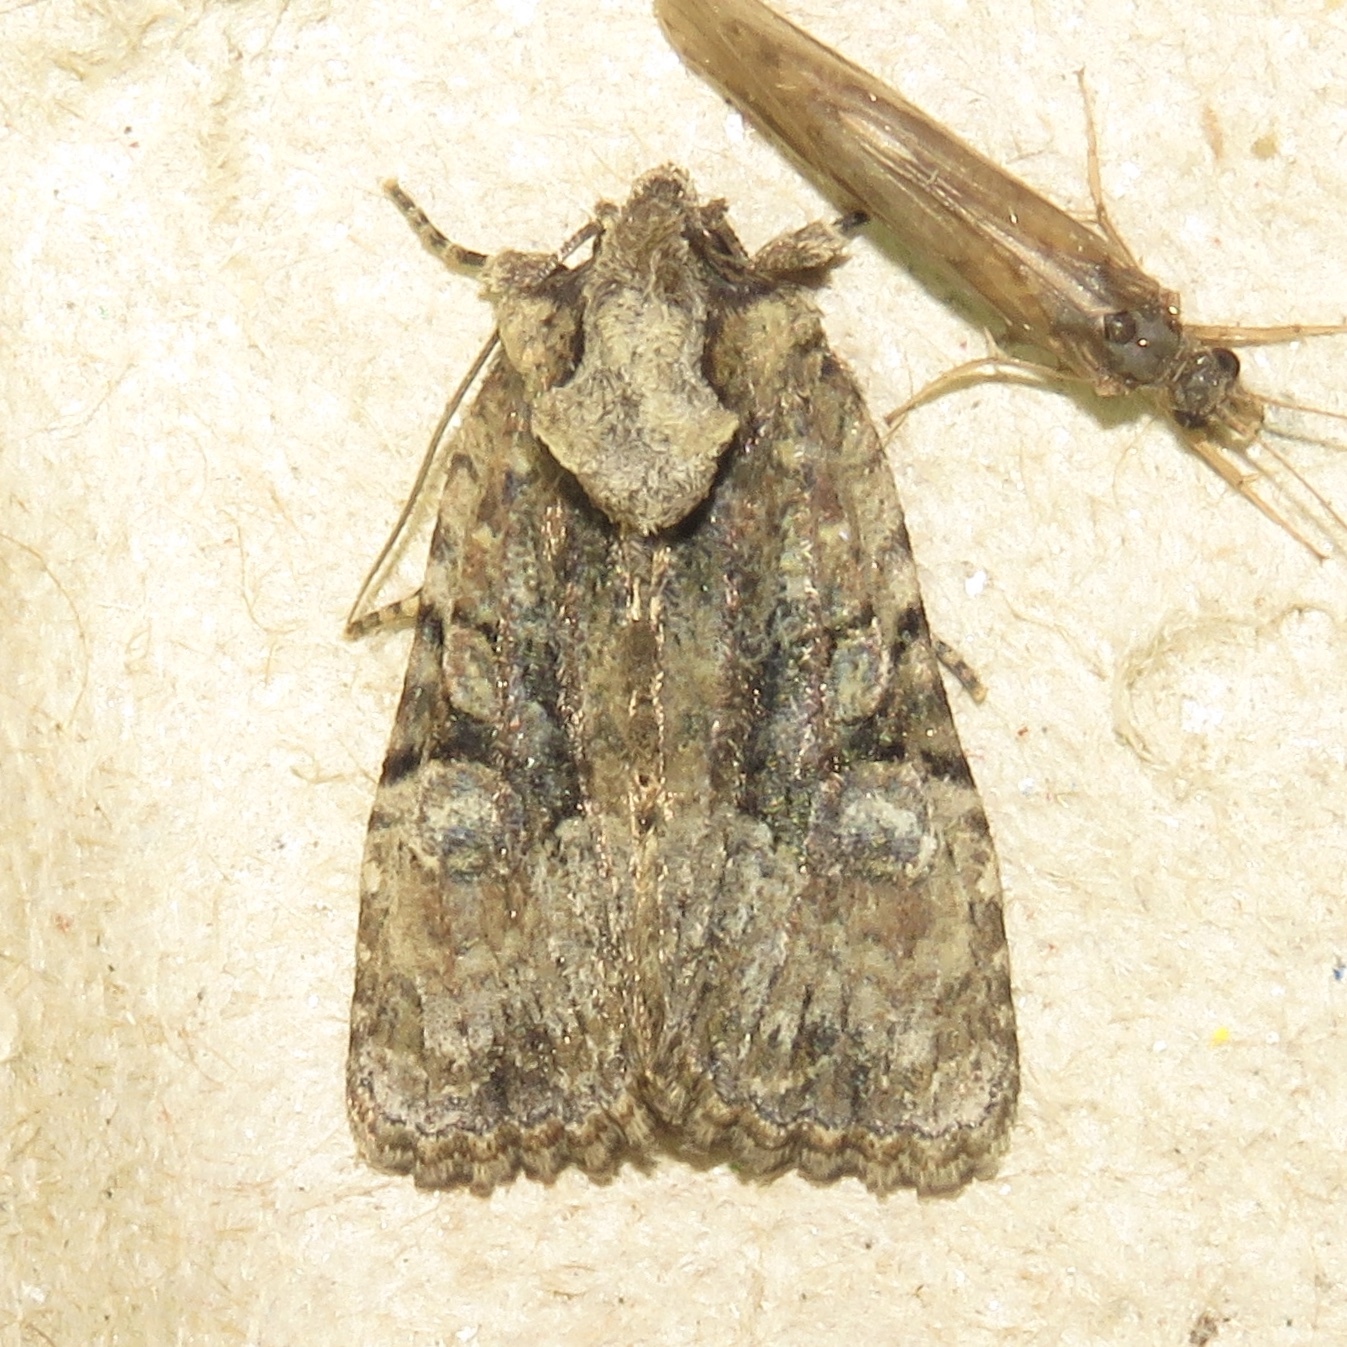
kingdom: Animalia
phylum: Arthropoda
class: Insecta
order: Lepidoptera
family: Noctuidae
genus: Oligia
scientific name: Oligia modica
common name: Black-banded brocade
